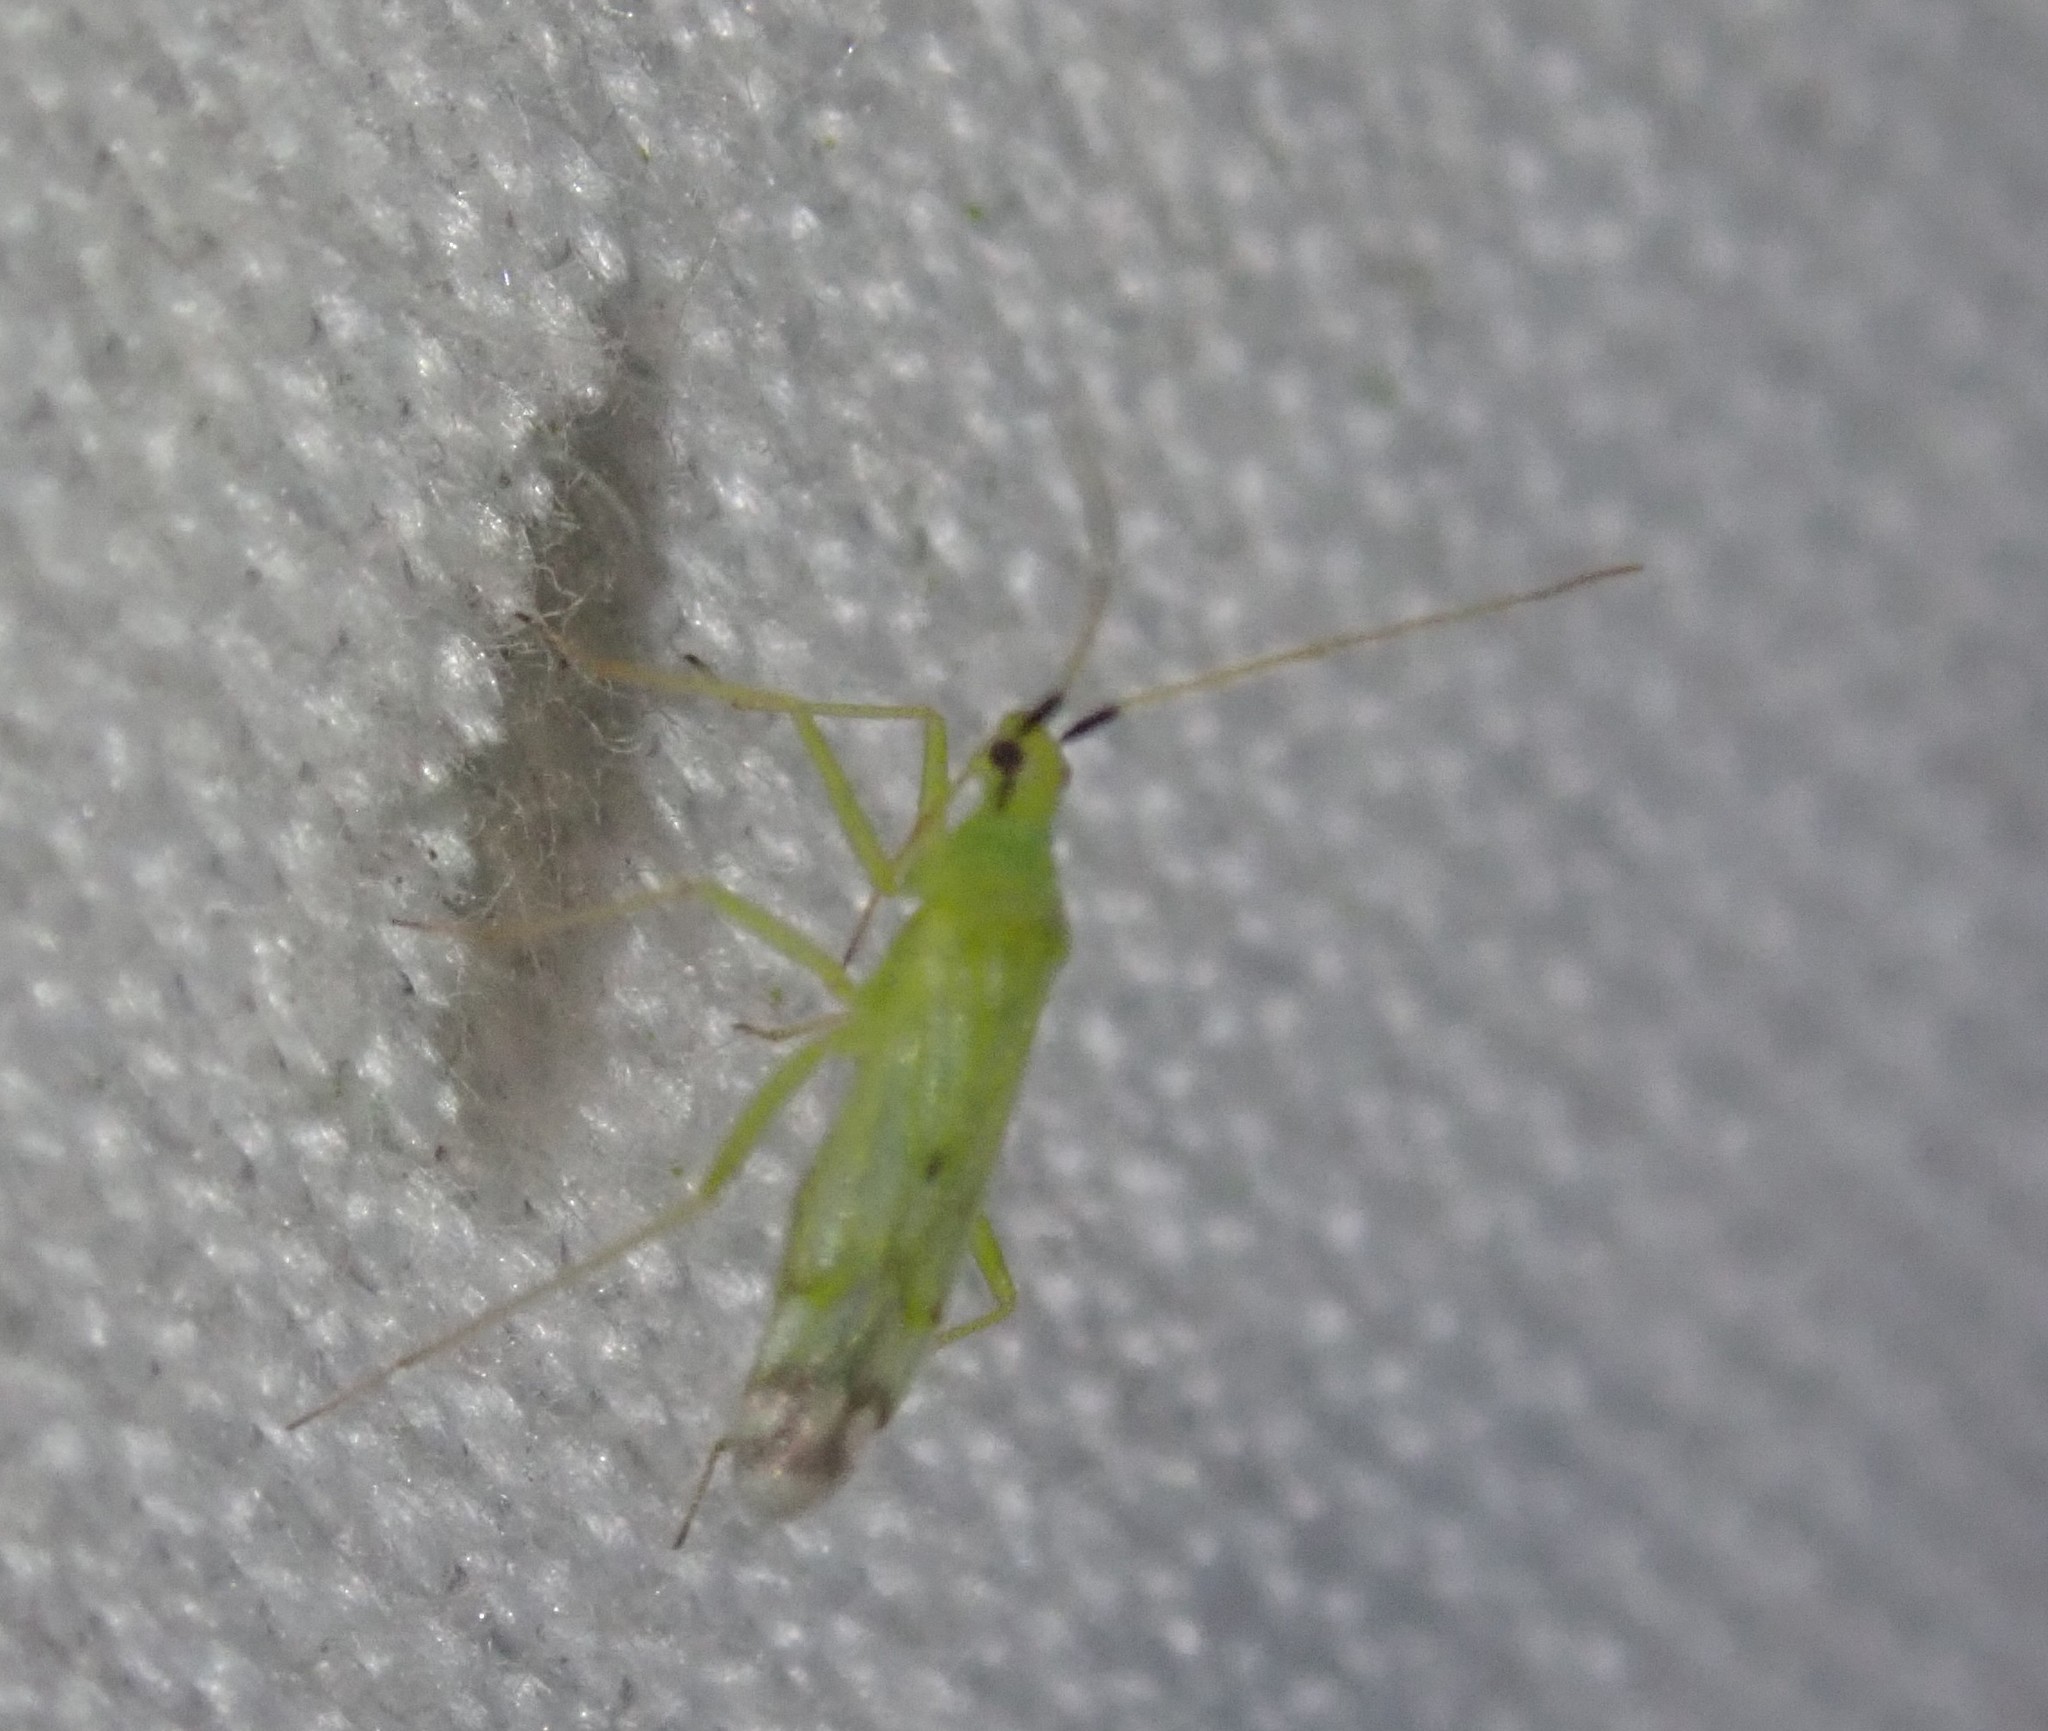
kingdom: Animalia
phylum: Arthropoda
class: Insecta
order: Hemiptera
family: Miridae
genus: Macrolophus
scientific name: Macrolophus pygmaeus
